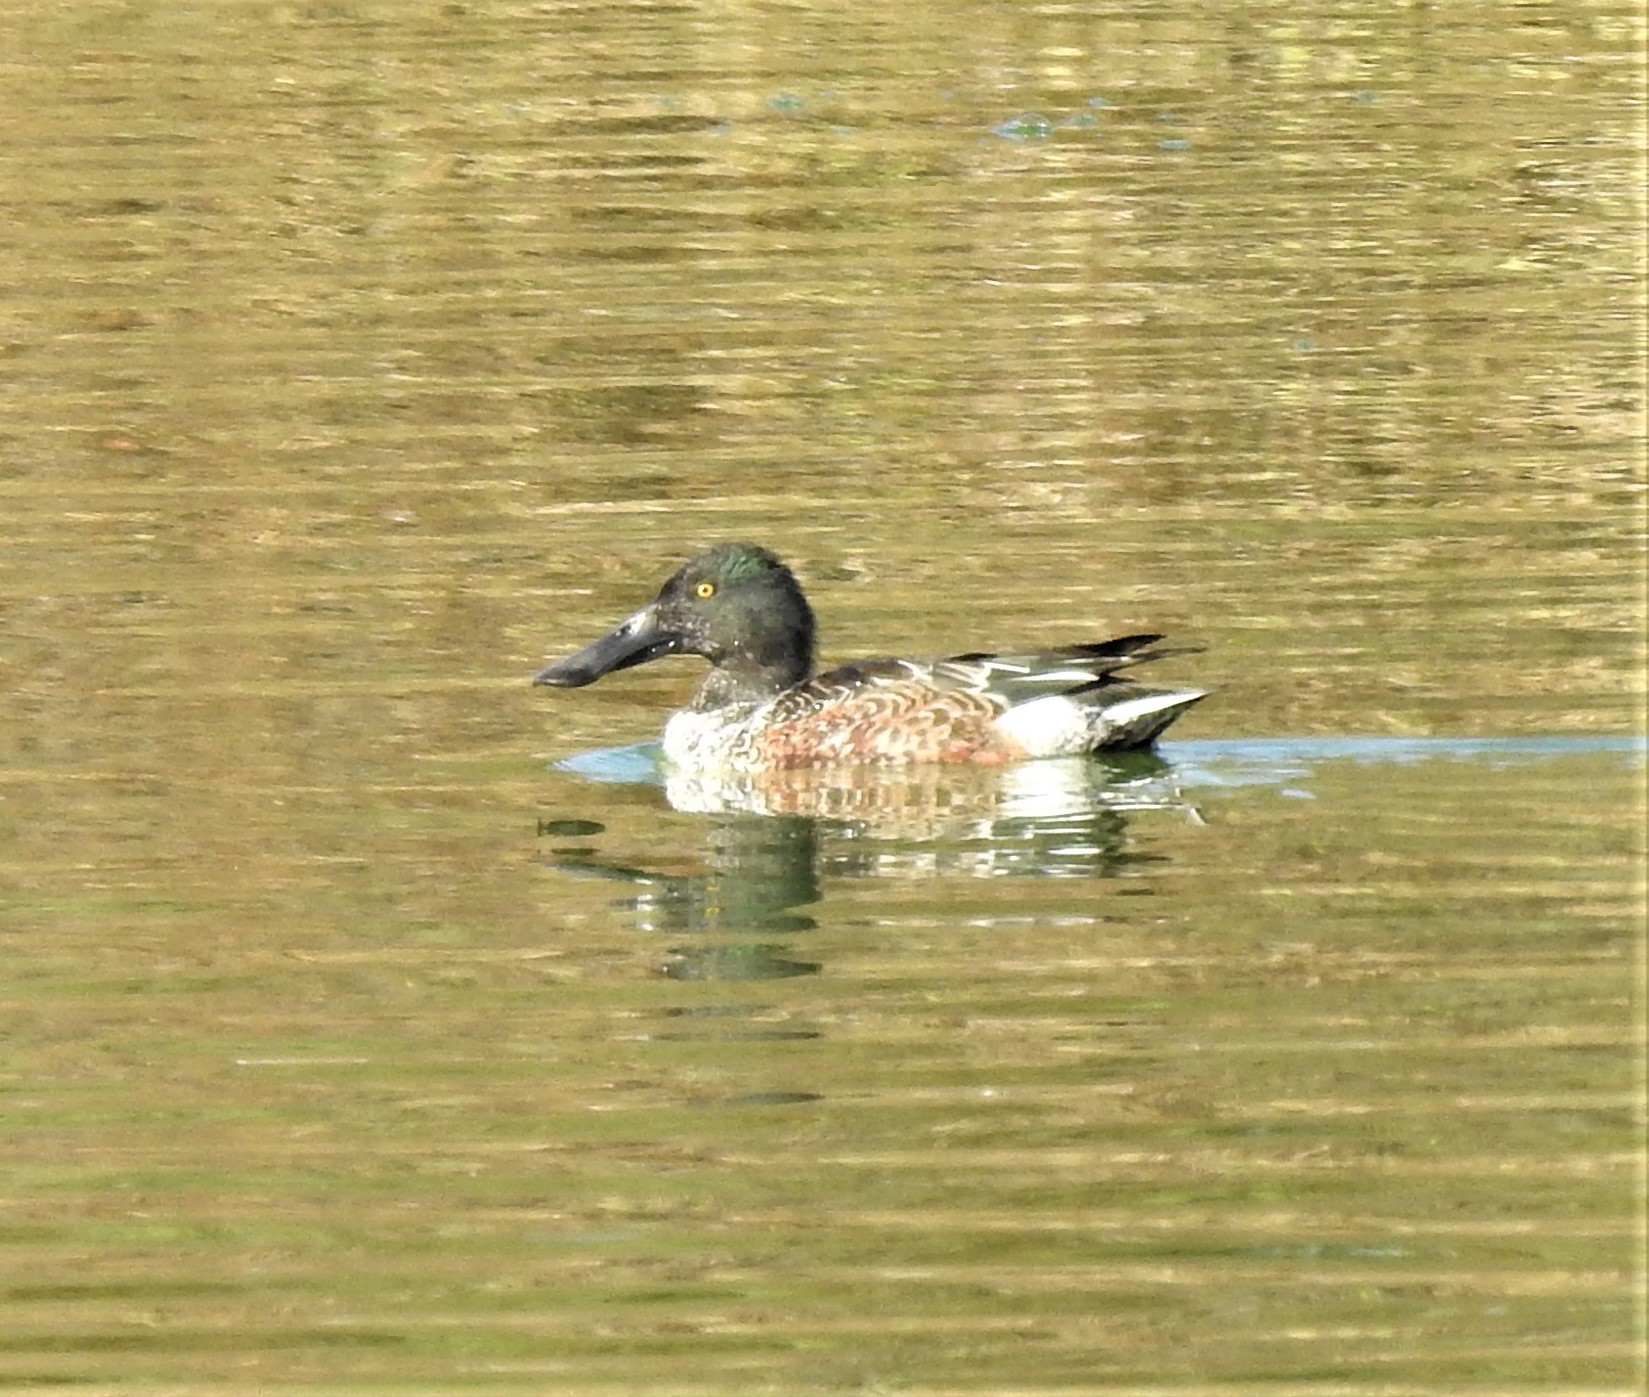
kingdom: Animalia
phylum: Chordata
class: Aves
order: Anseriformes
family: Anatidae
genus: Spatula
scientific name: Spatula clypeata
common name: Northern shoveler
